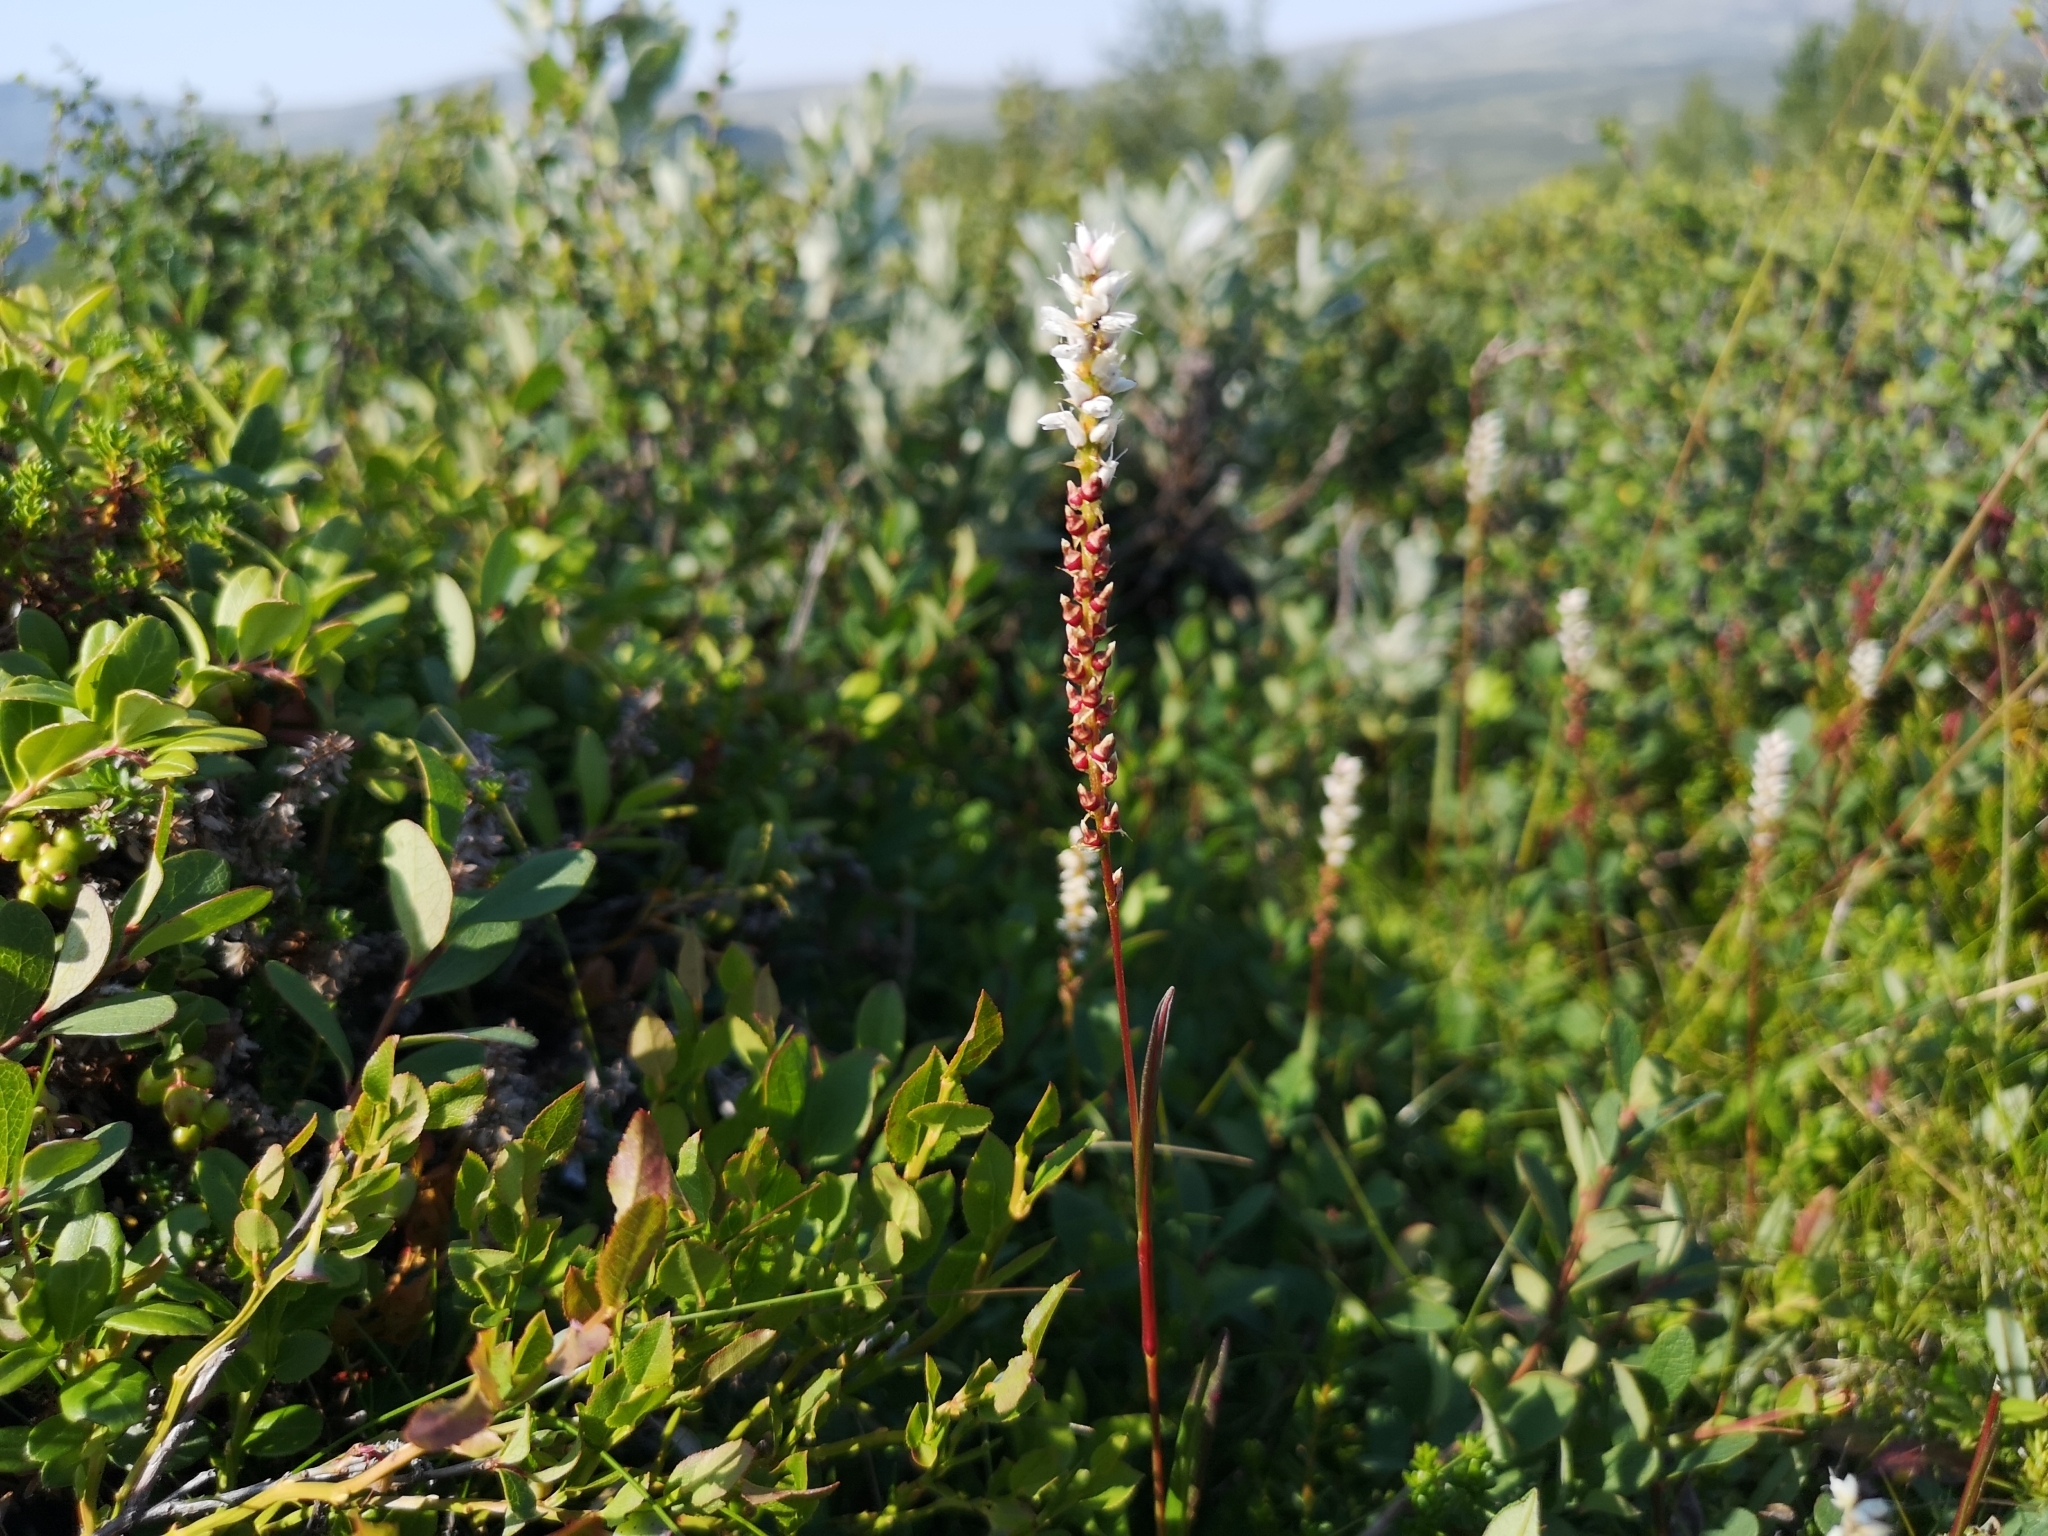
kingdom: Plantae
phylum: Tracheophyta
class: Magnoliopsida
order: Caryophyllales
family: Polygonaceae
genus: Bistorta
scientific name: Bistorta vivipara
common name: Alpine bistort
